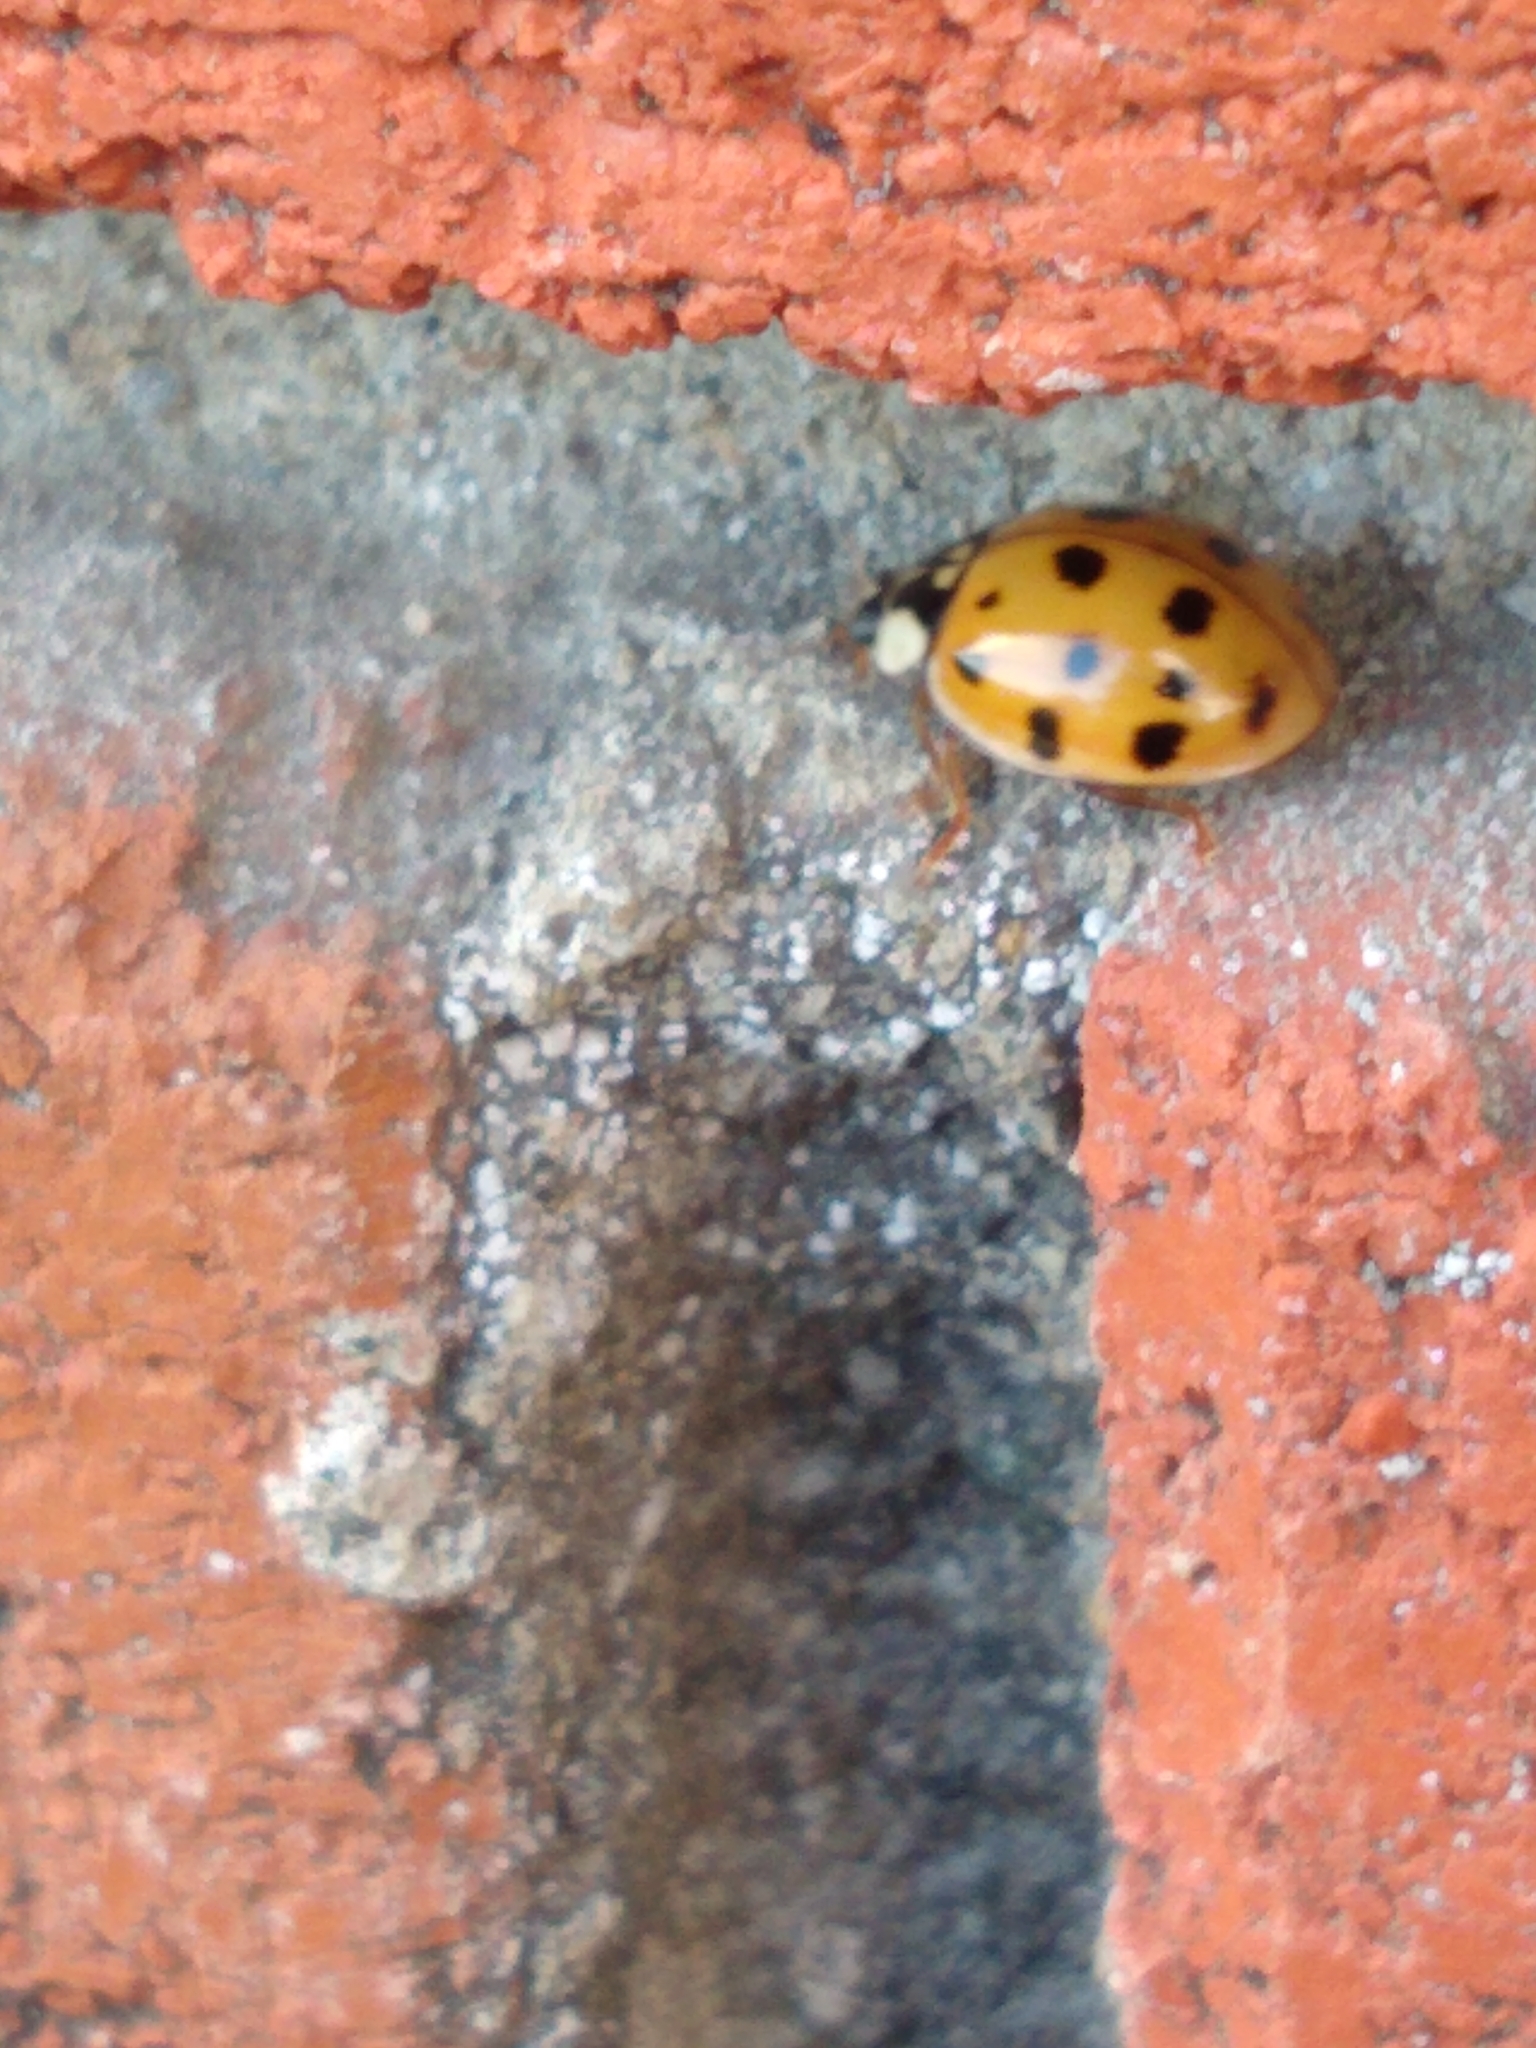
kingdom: Animalia
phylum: Arthropoda
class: Insecta
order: Coleoptera
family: Coccinellidae
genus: Harmonia
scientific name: Harmonia axyridis
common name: Harlequin ladybird
